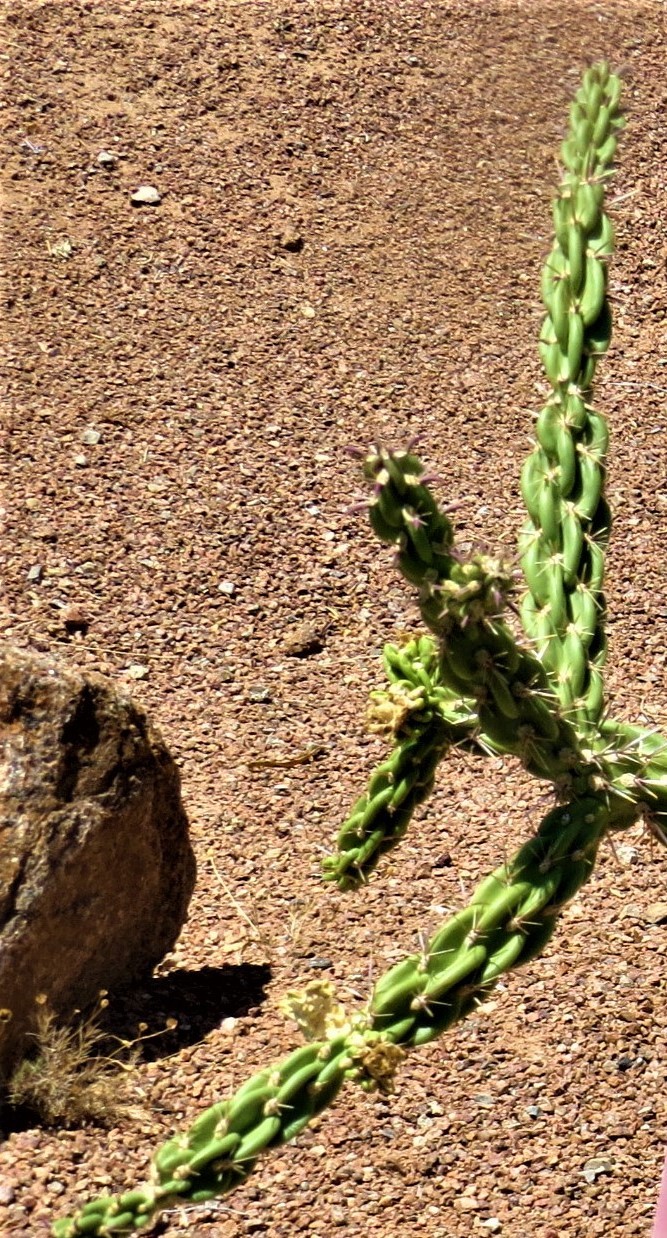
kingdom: Plantae
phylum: Tracheophyta
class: Magnoliopsida
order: Caryophyllales
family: Cactaceae
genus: Cylindropuntia
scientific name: Cylindropuntia imbricata
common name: Candelabrum cactus
